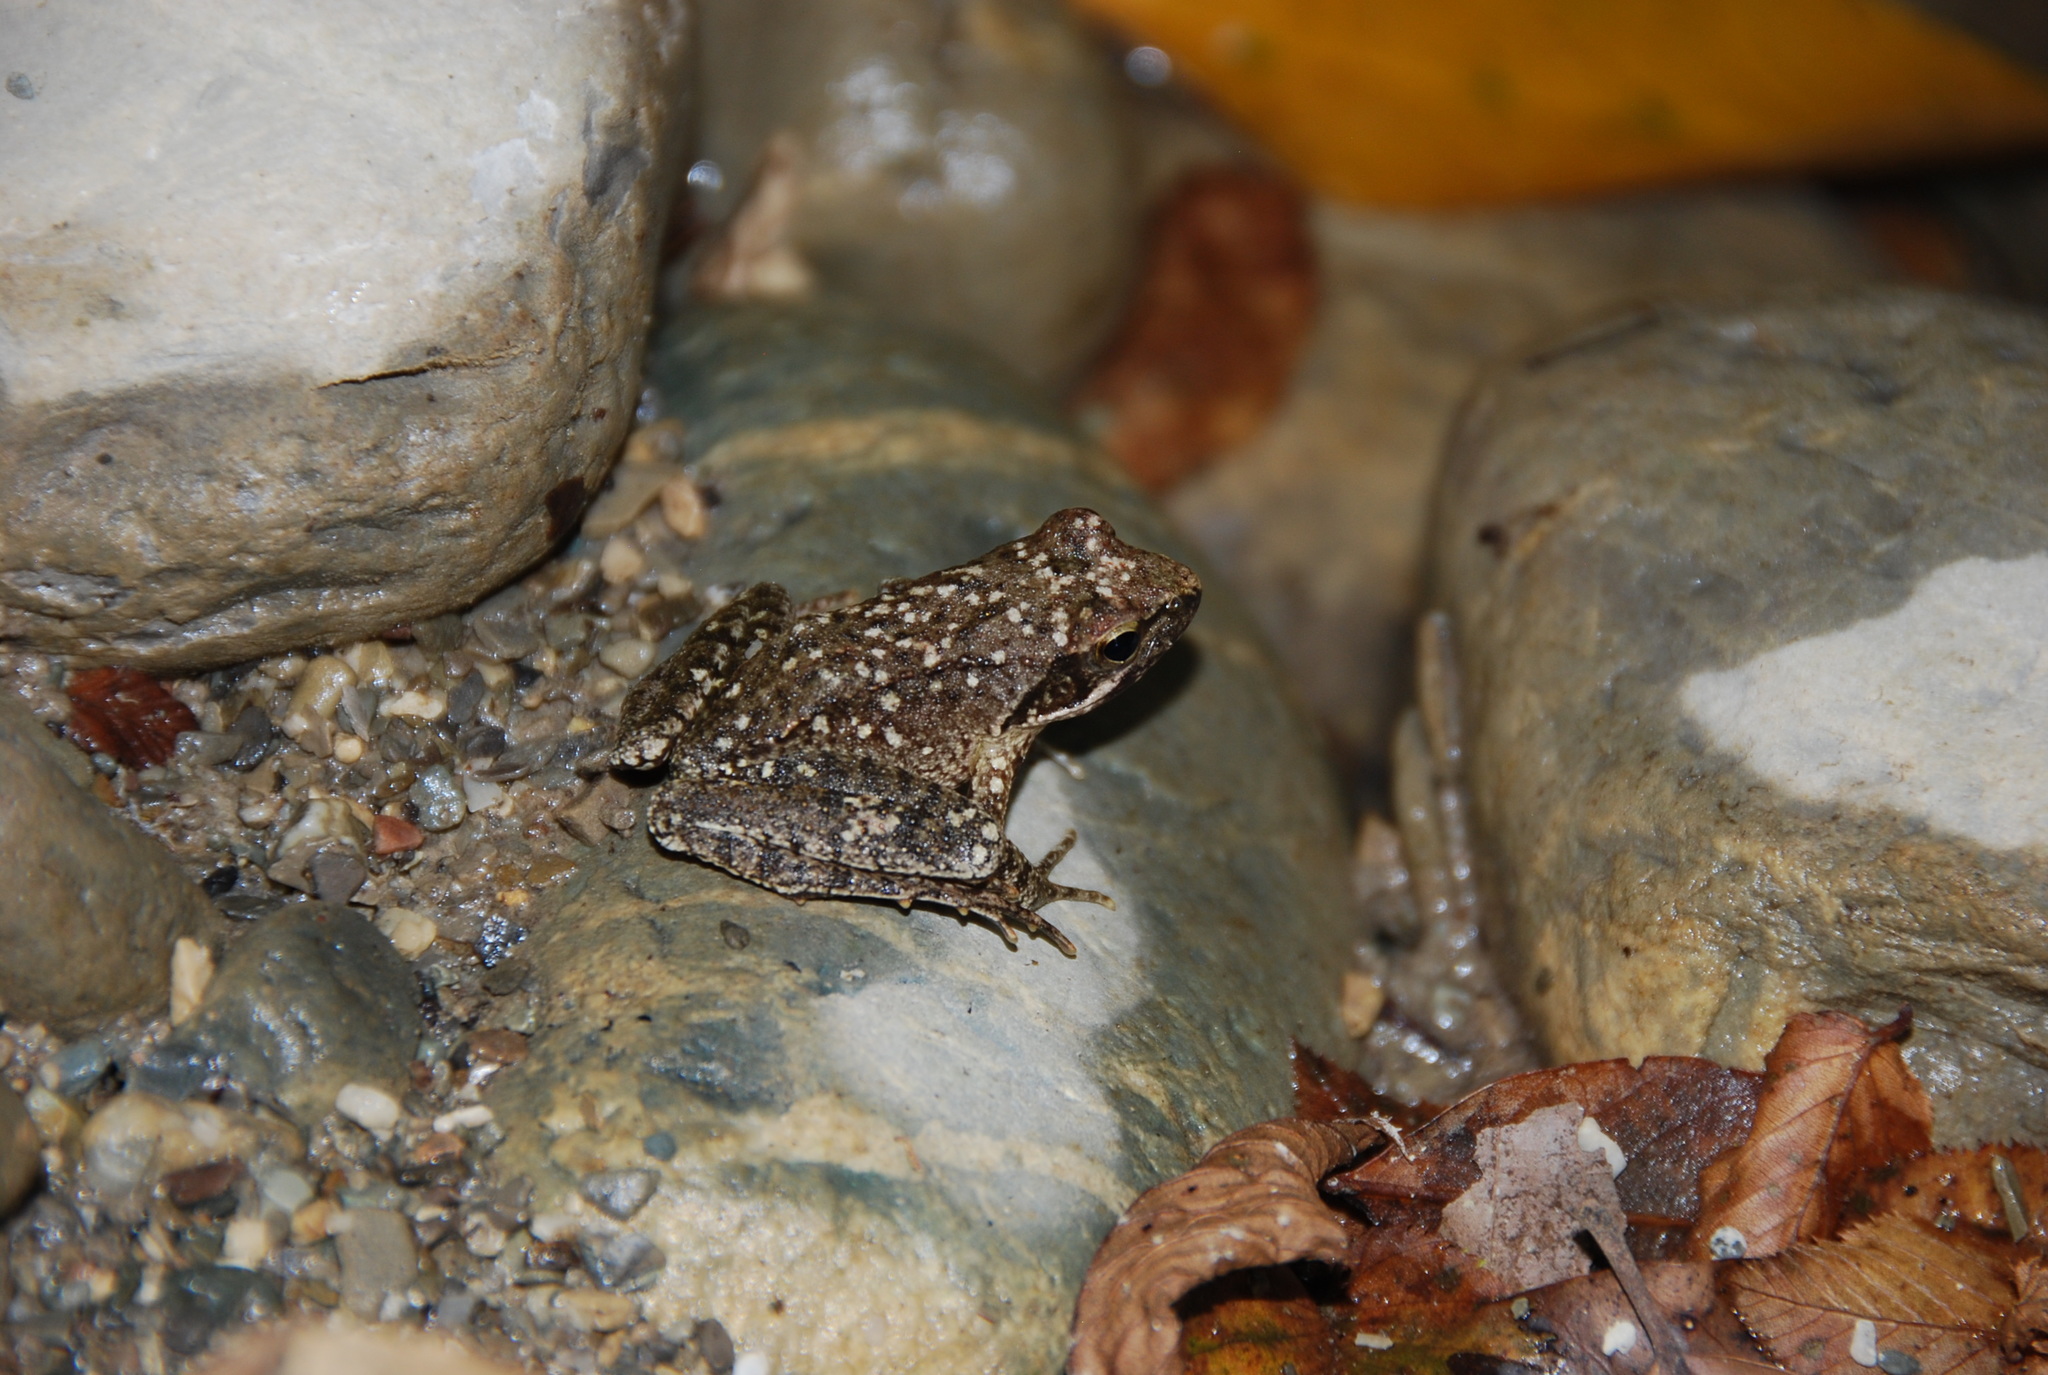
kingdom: Animalia
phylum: Chordata
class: Amphibia
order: Anura
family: Ranidae
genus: Rana
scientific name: Rana italica
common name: Italian stream frog
